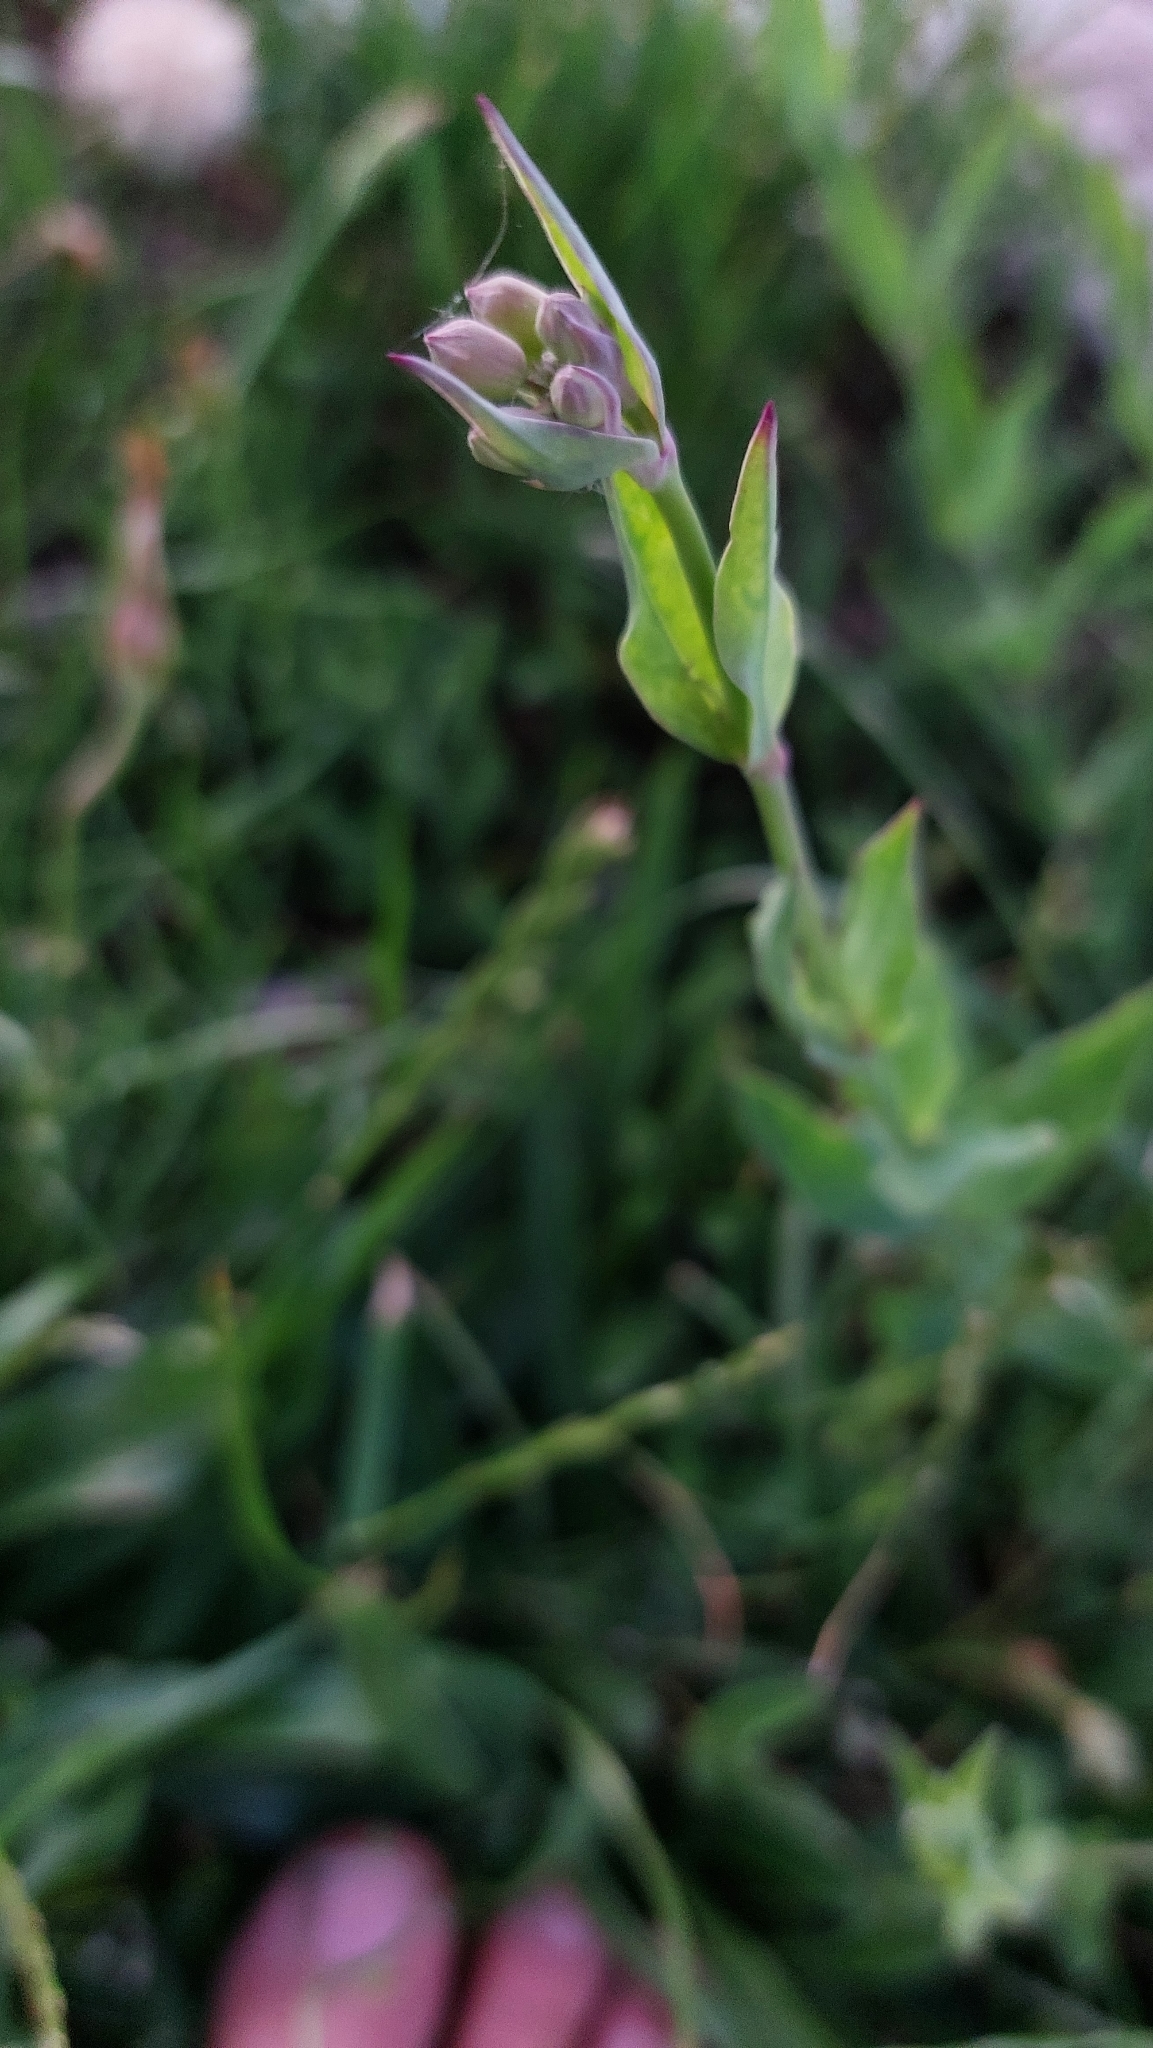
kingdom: Plantae
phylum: Tracheophyta
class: Magnoliopsida
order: Caryophyllales
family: Caryophyllaceae
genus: Silene
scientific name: Silene vulgaris
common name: Bladder campion
